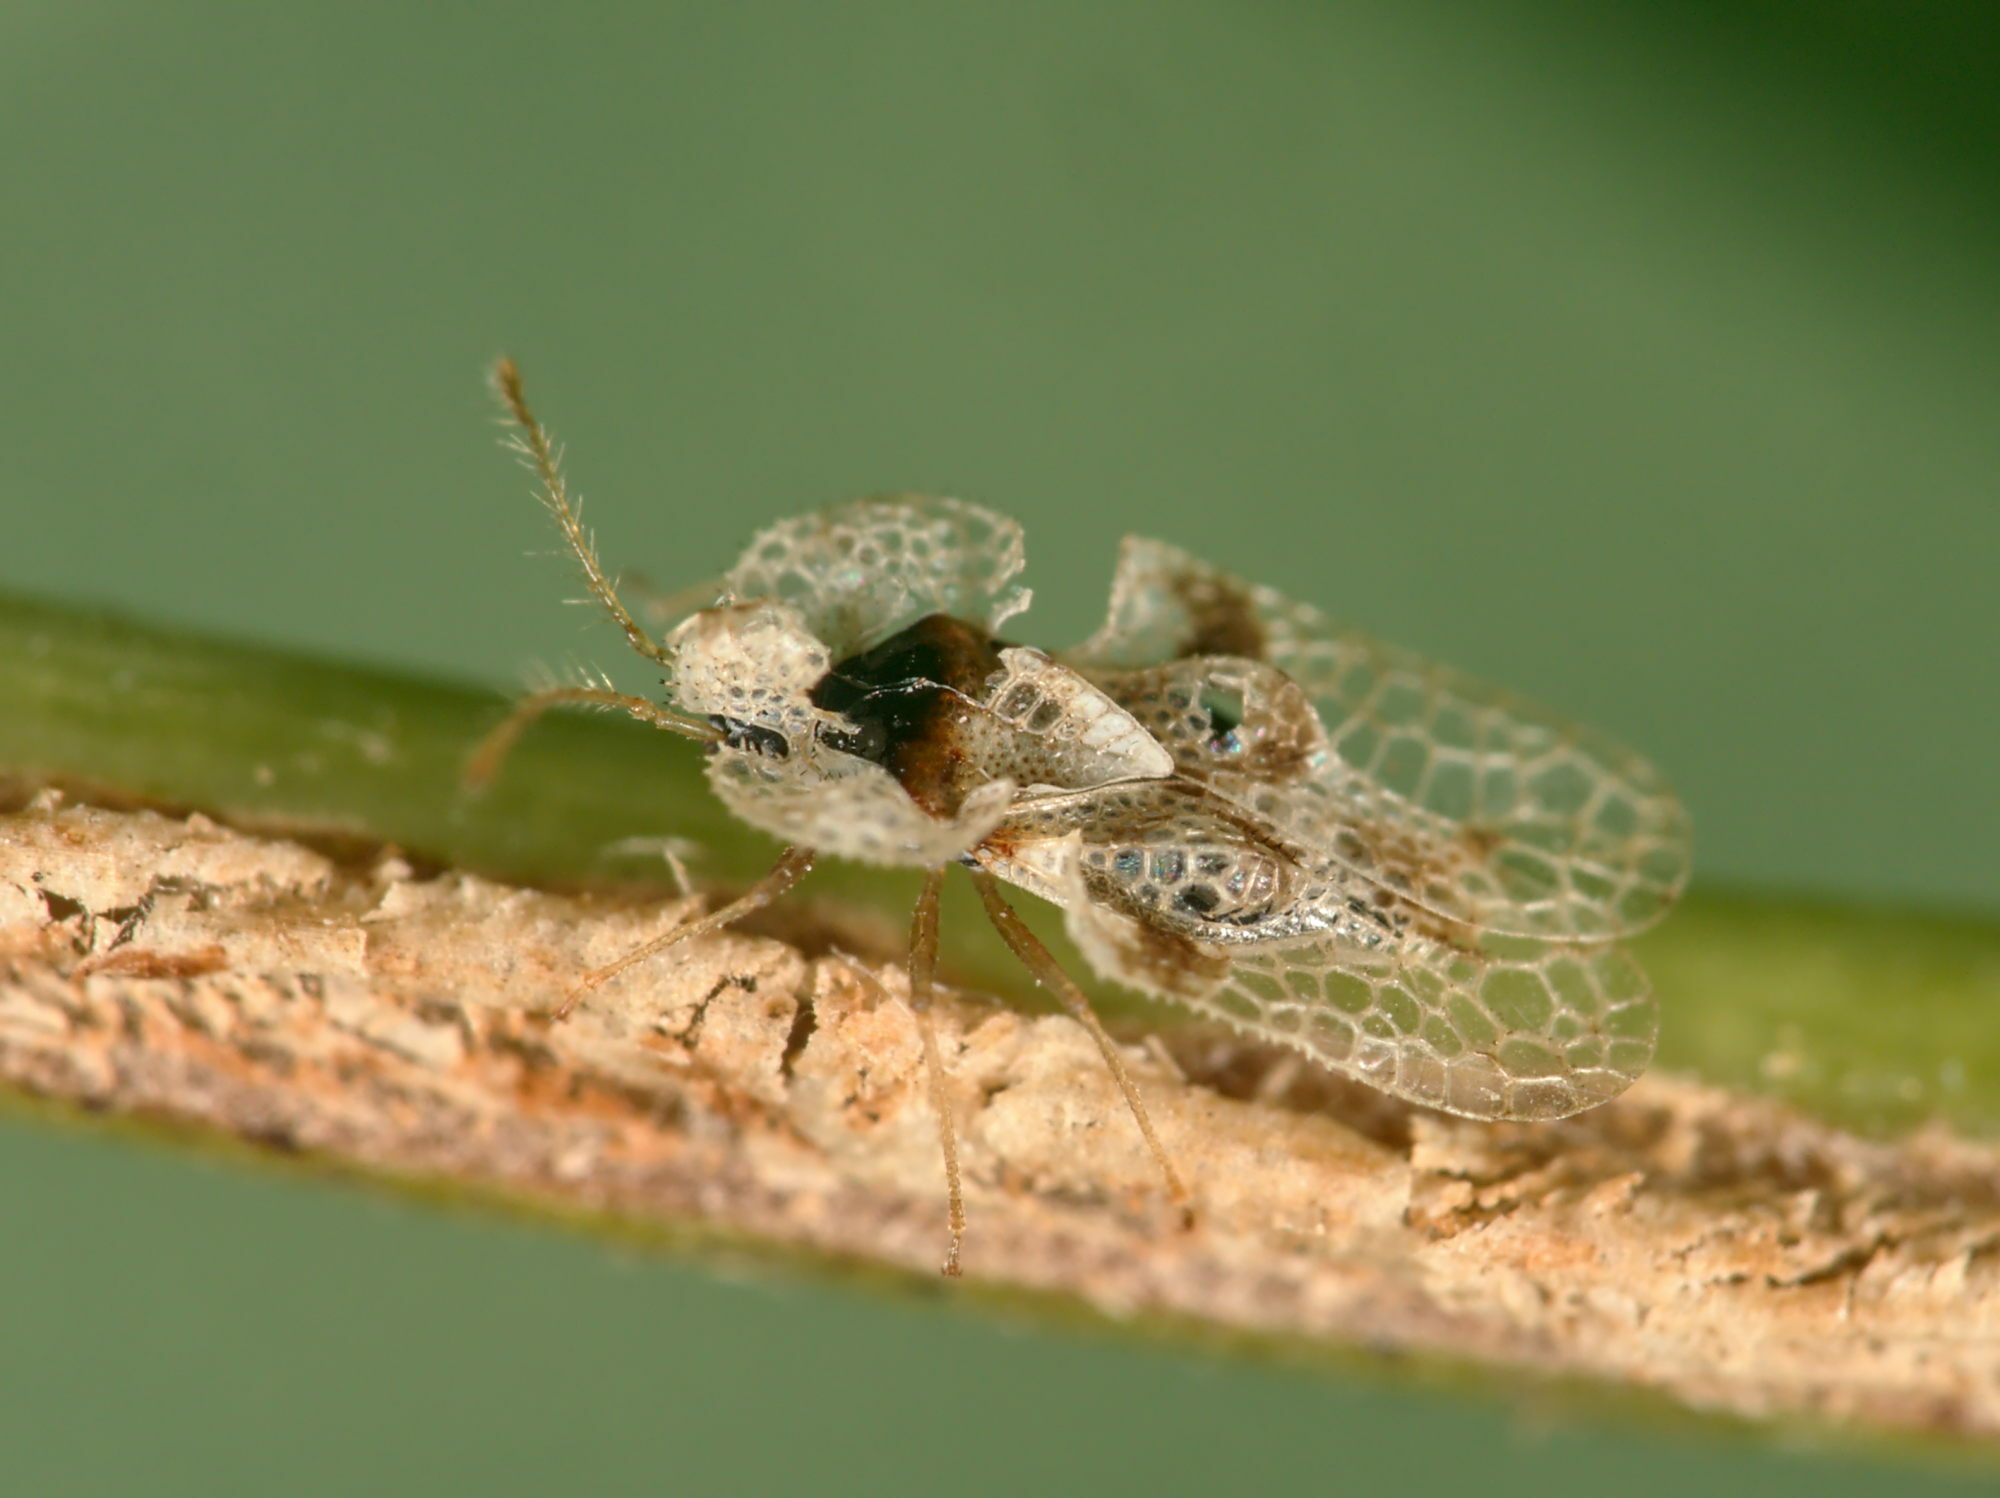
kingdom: Animalia
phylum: Arthropoda
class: Insecta
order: Hemiptera
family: Tingidae
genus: Corythucha
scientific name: Corythucha arcuata
